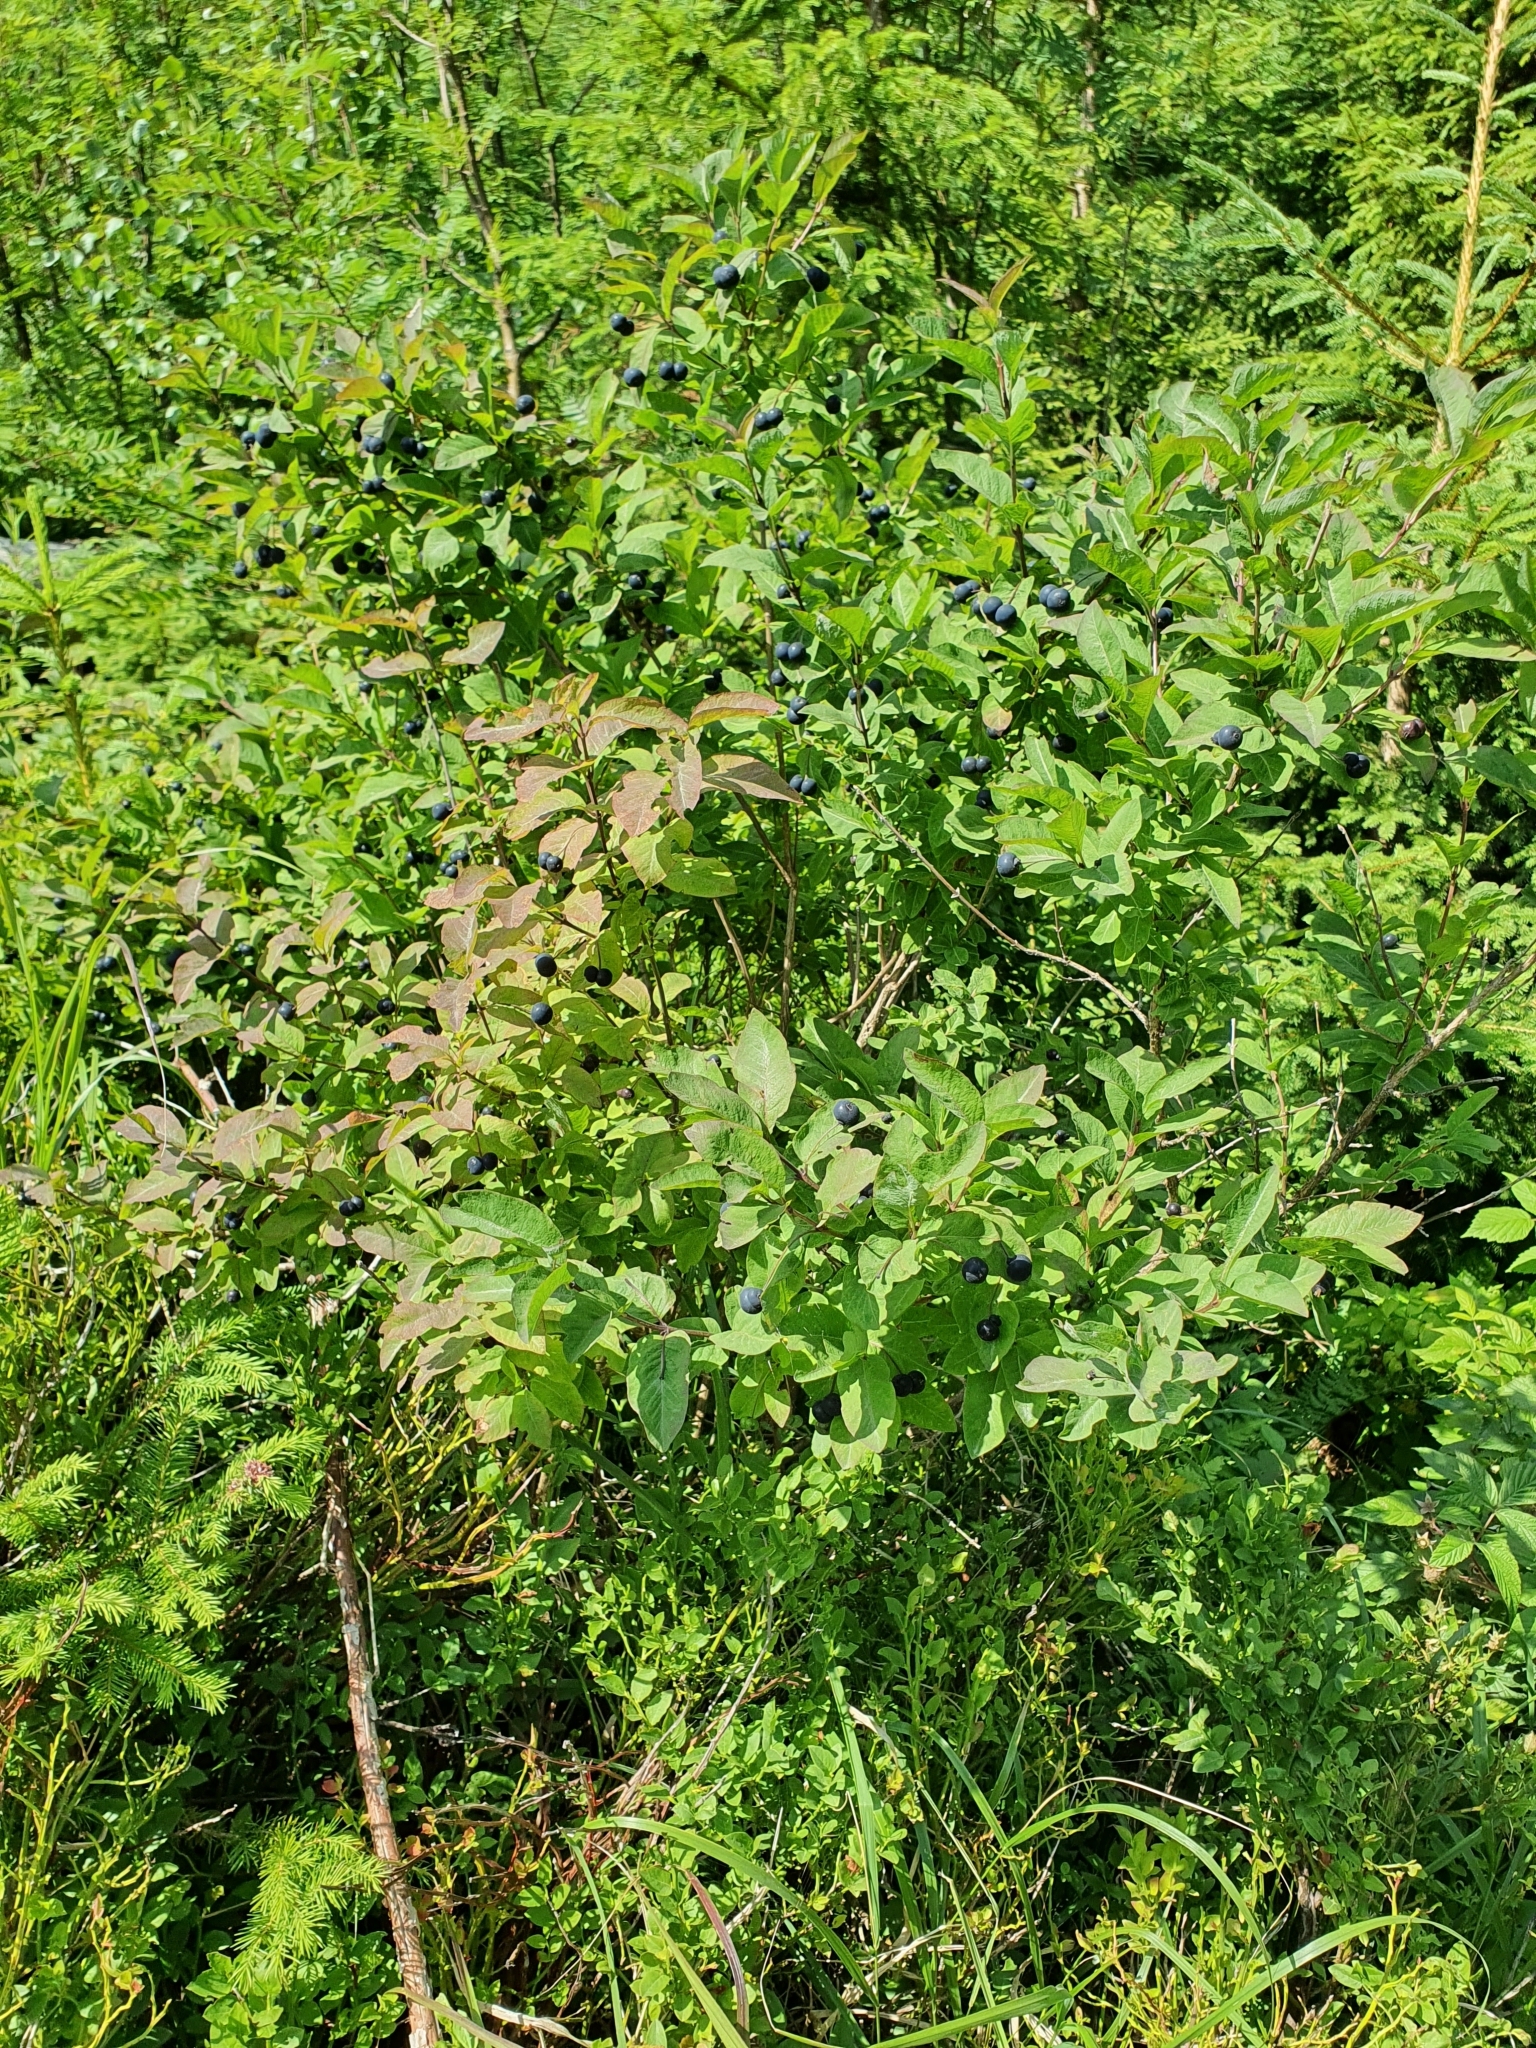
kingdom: Plantae
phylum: Tracheophyta
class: Magnoliopsida
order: Dipsacales
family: Caprifoliaceae
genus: Lonicera
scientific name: Lonicera nigra
